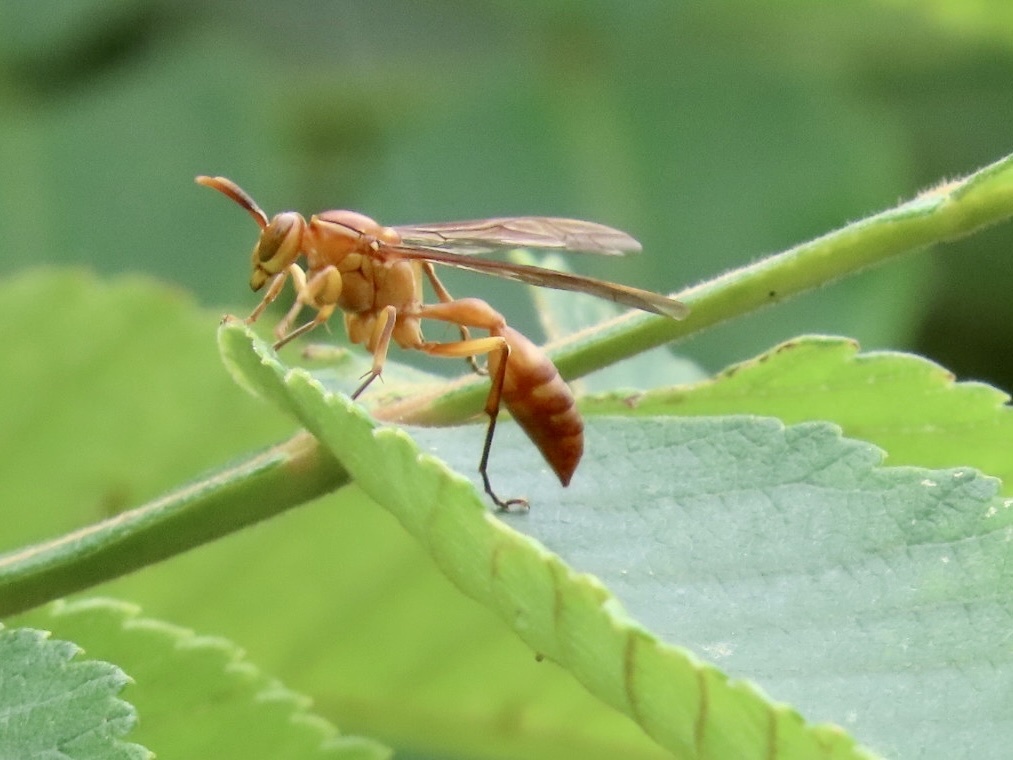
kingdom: Animalia
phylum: Arthropoda
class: Insecta
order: Hymenoptera
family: Vespidae
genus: Parapolybia
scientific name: Parapolybia indica
